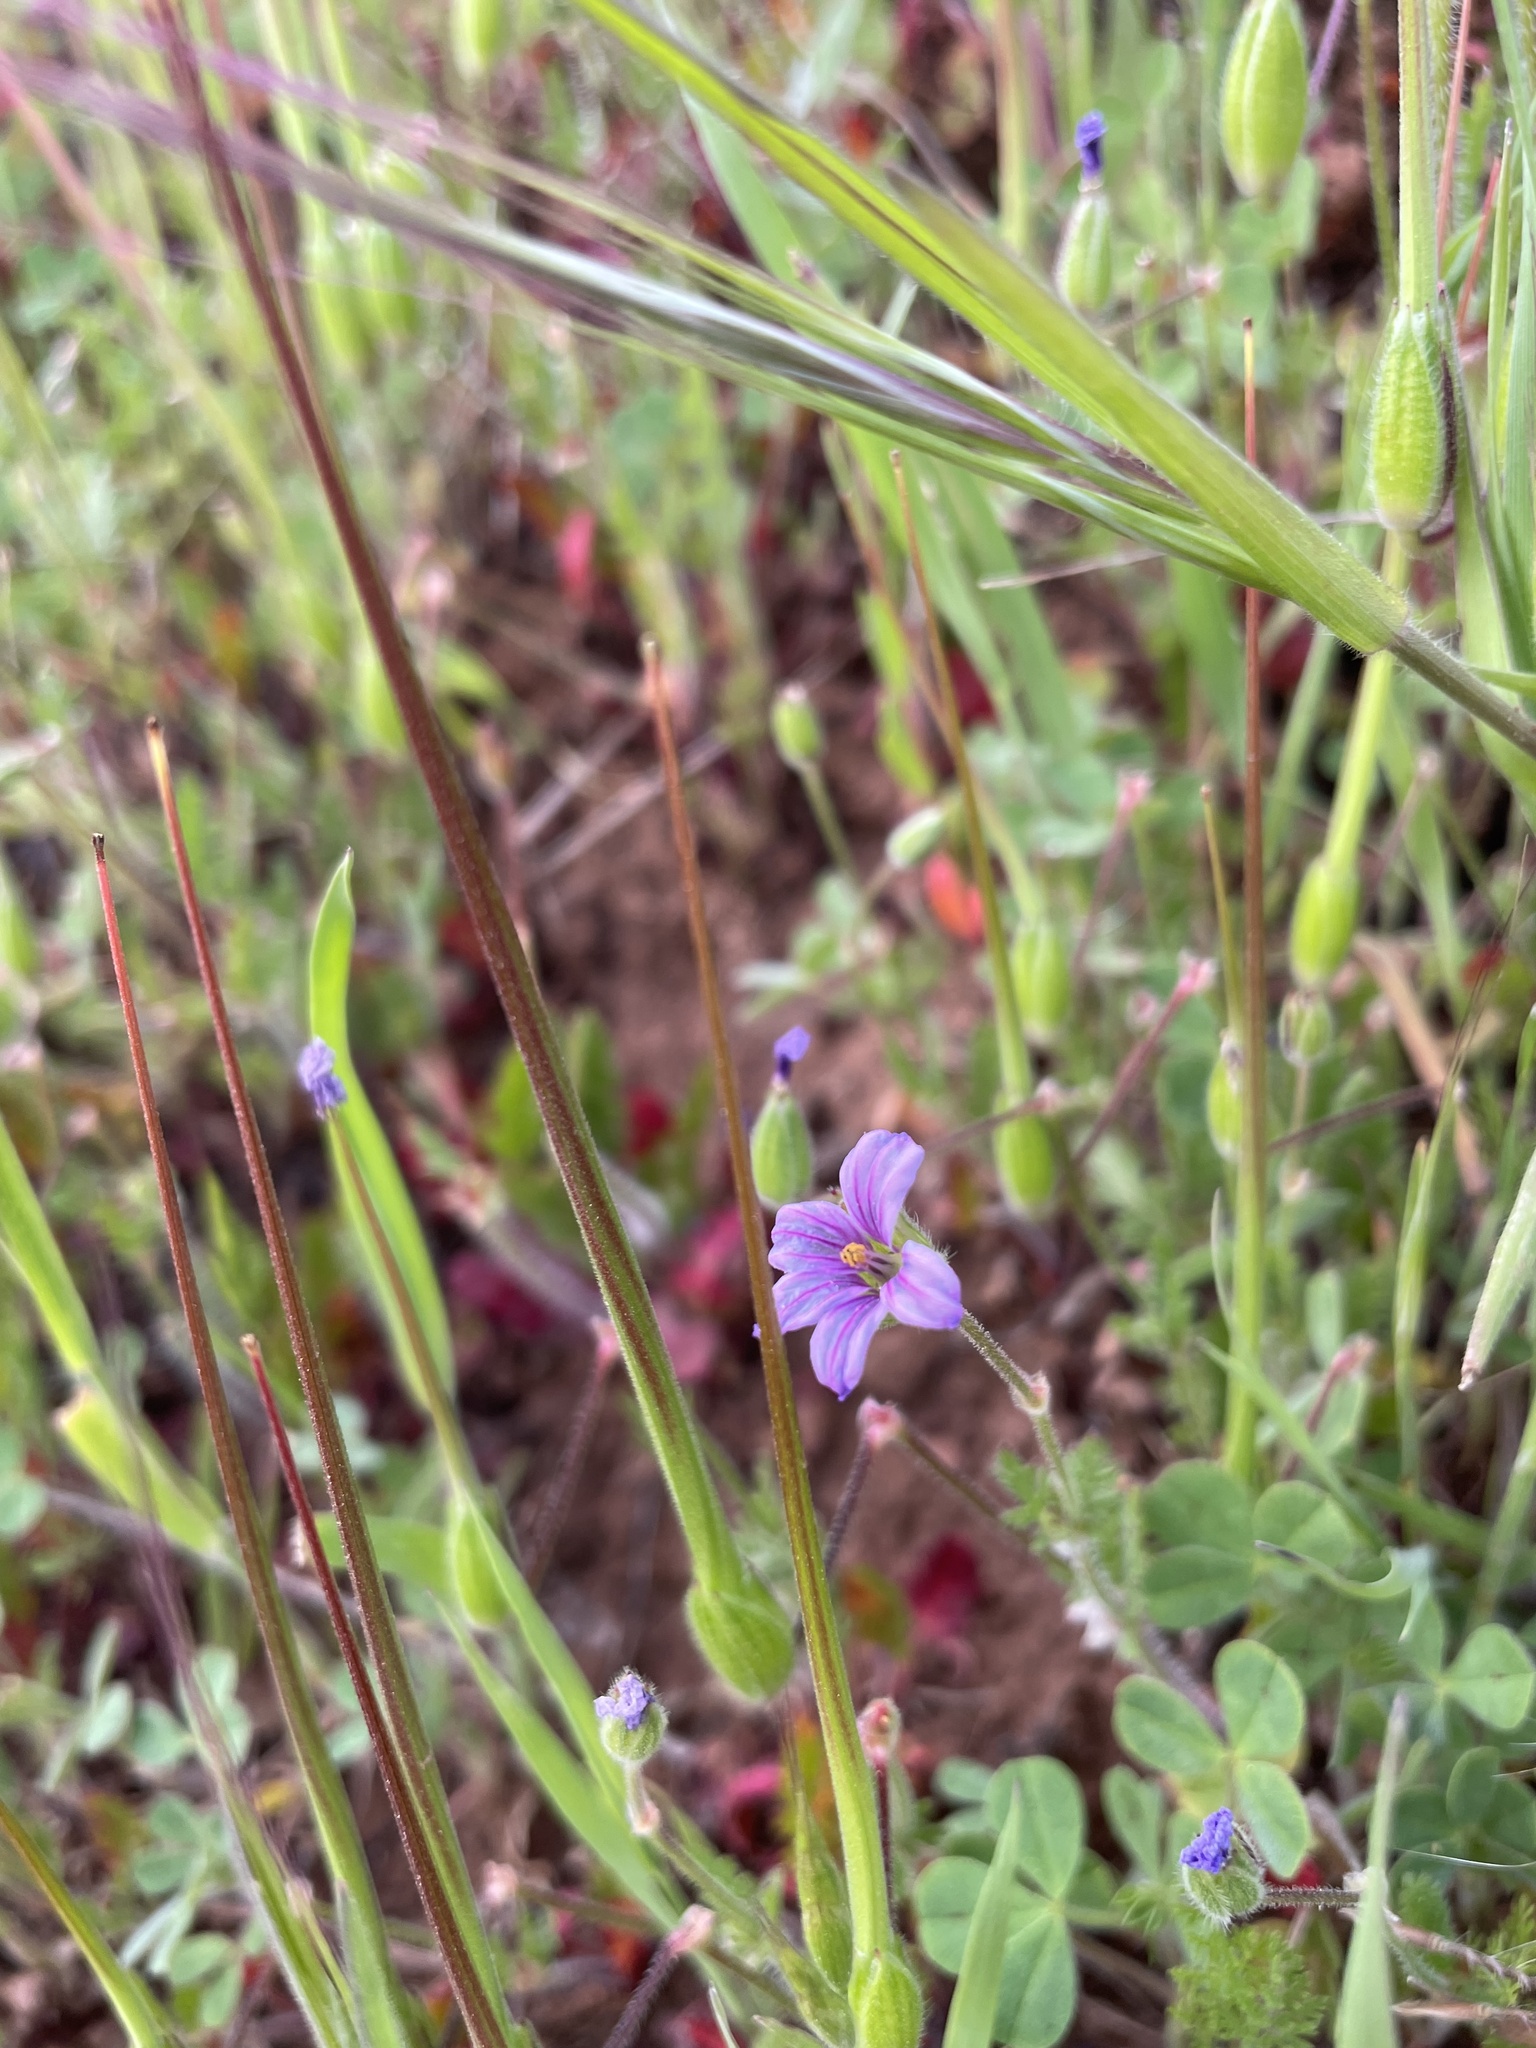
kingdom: Plantae
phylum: Tracheophyta
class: Magnoliopsida
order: Geraniales
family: Geraniaceae
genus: Erodium
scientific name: Erodium botrys
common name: Mediterranean stork's-bill
